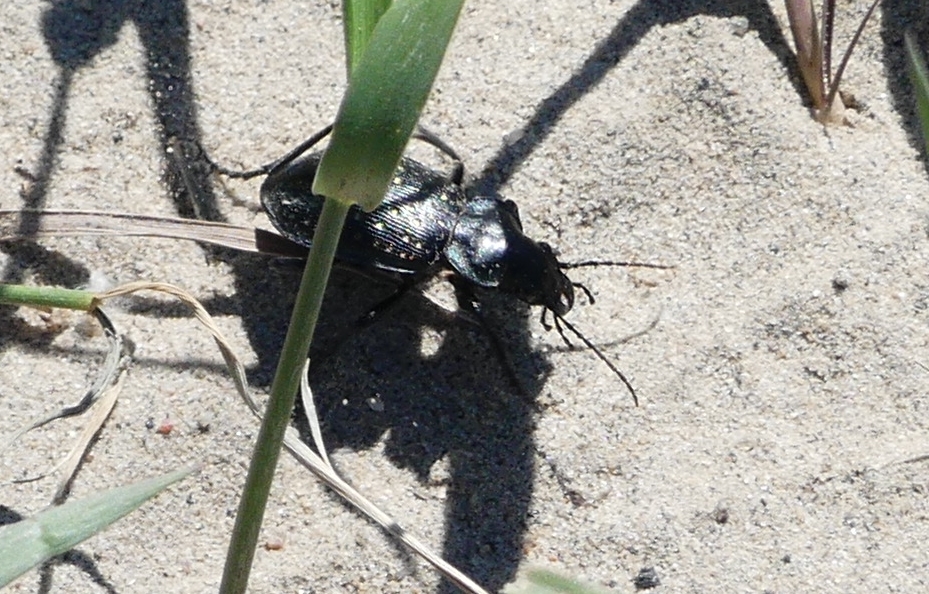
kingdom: Animalia
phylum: Arthropoda
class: Insecta
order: Coleoptera
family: Carabidae
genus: Calosoma
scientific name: Calosoma calidum
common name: Fiery hunter
